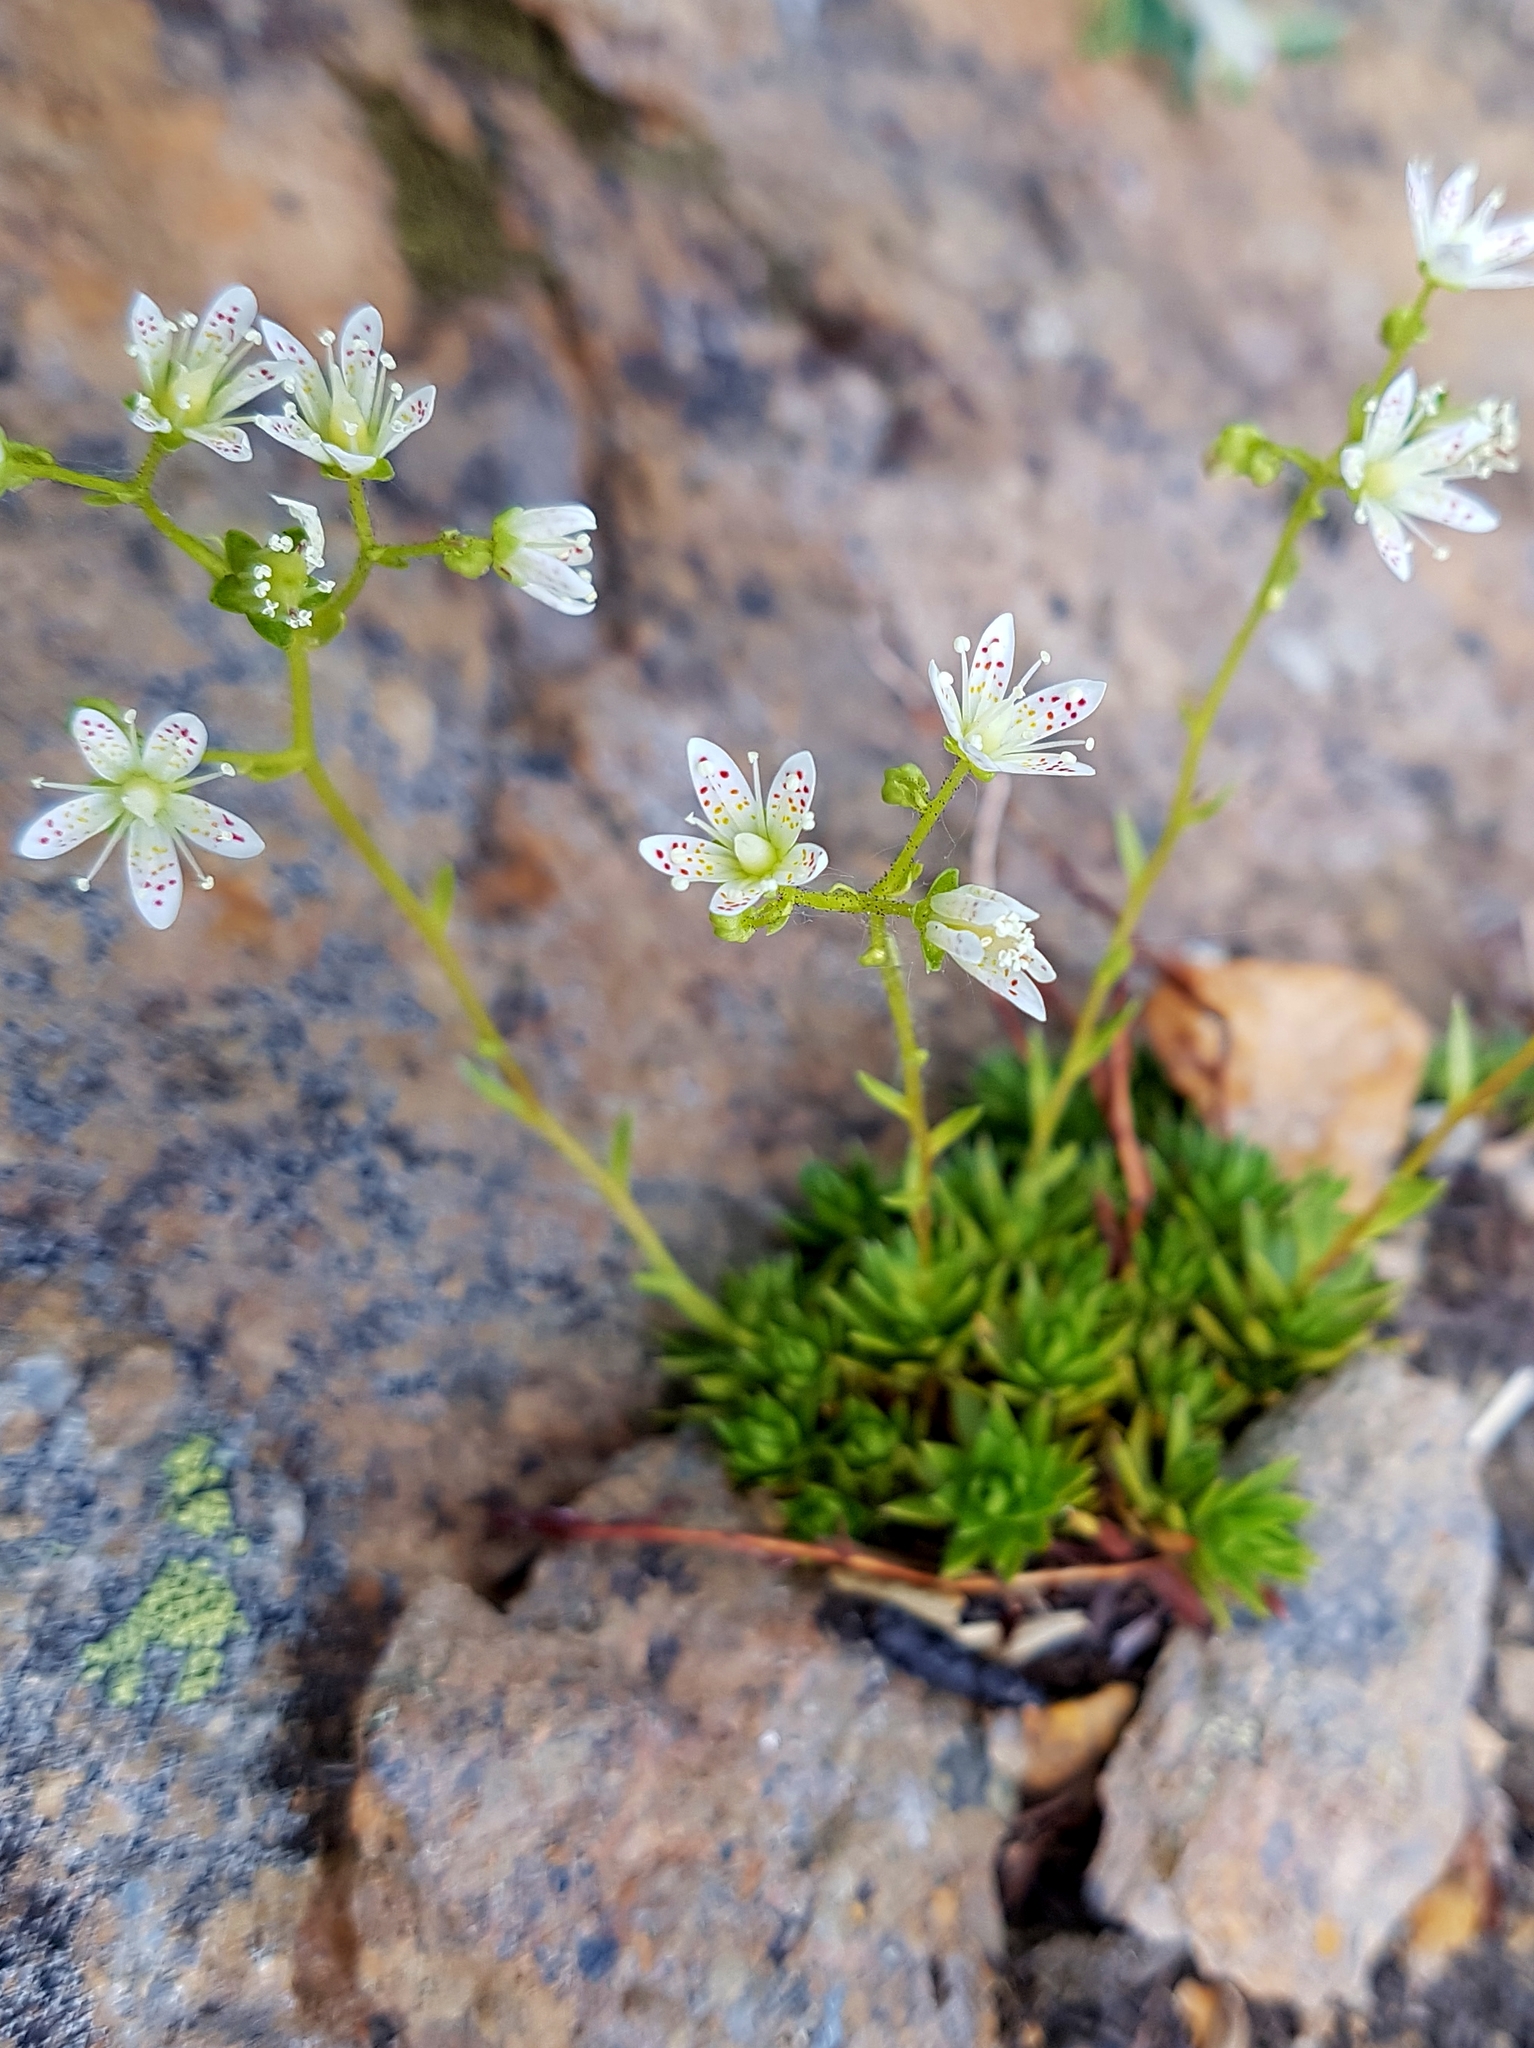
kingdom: Plantae
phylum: Tracheophyta
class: Magnoliopsida
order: Saxifragales
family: Saxifragaceae
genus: Saxifraga
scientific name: Saxifraga bronchialis
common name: Matted saxifrage
